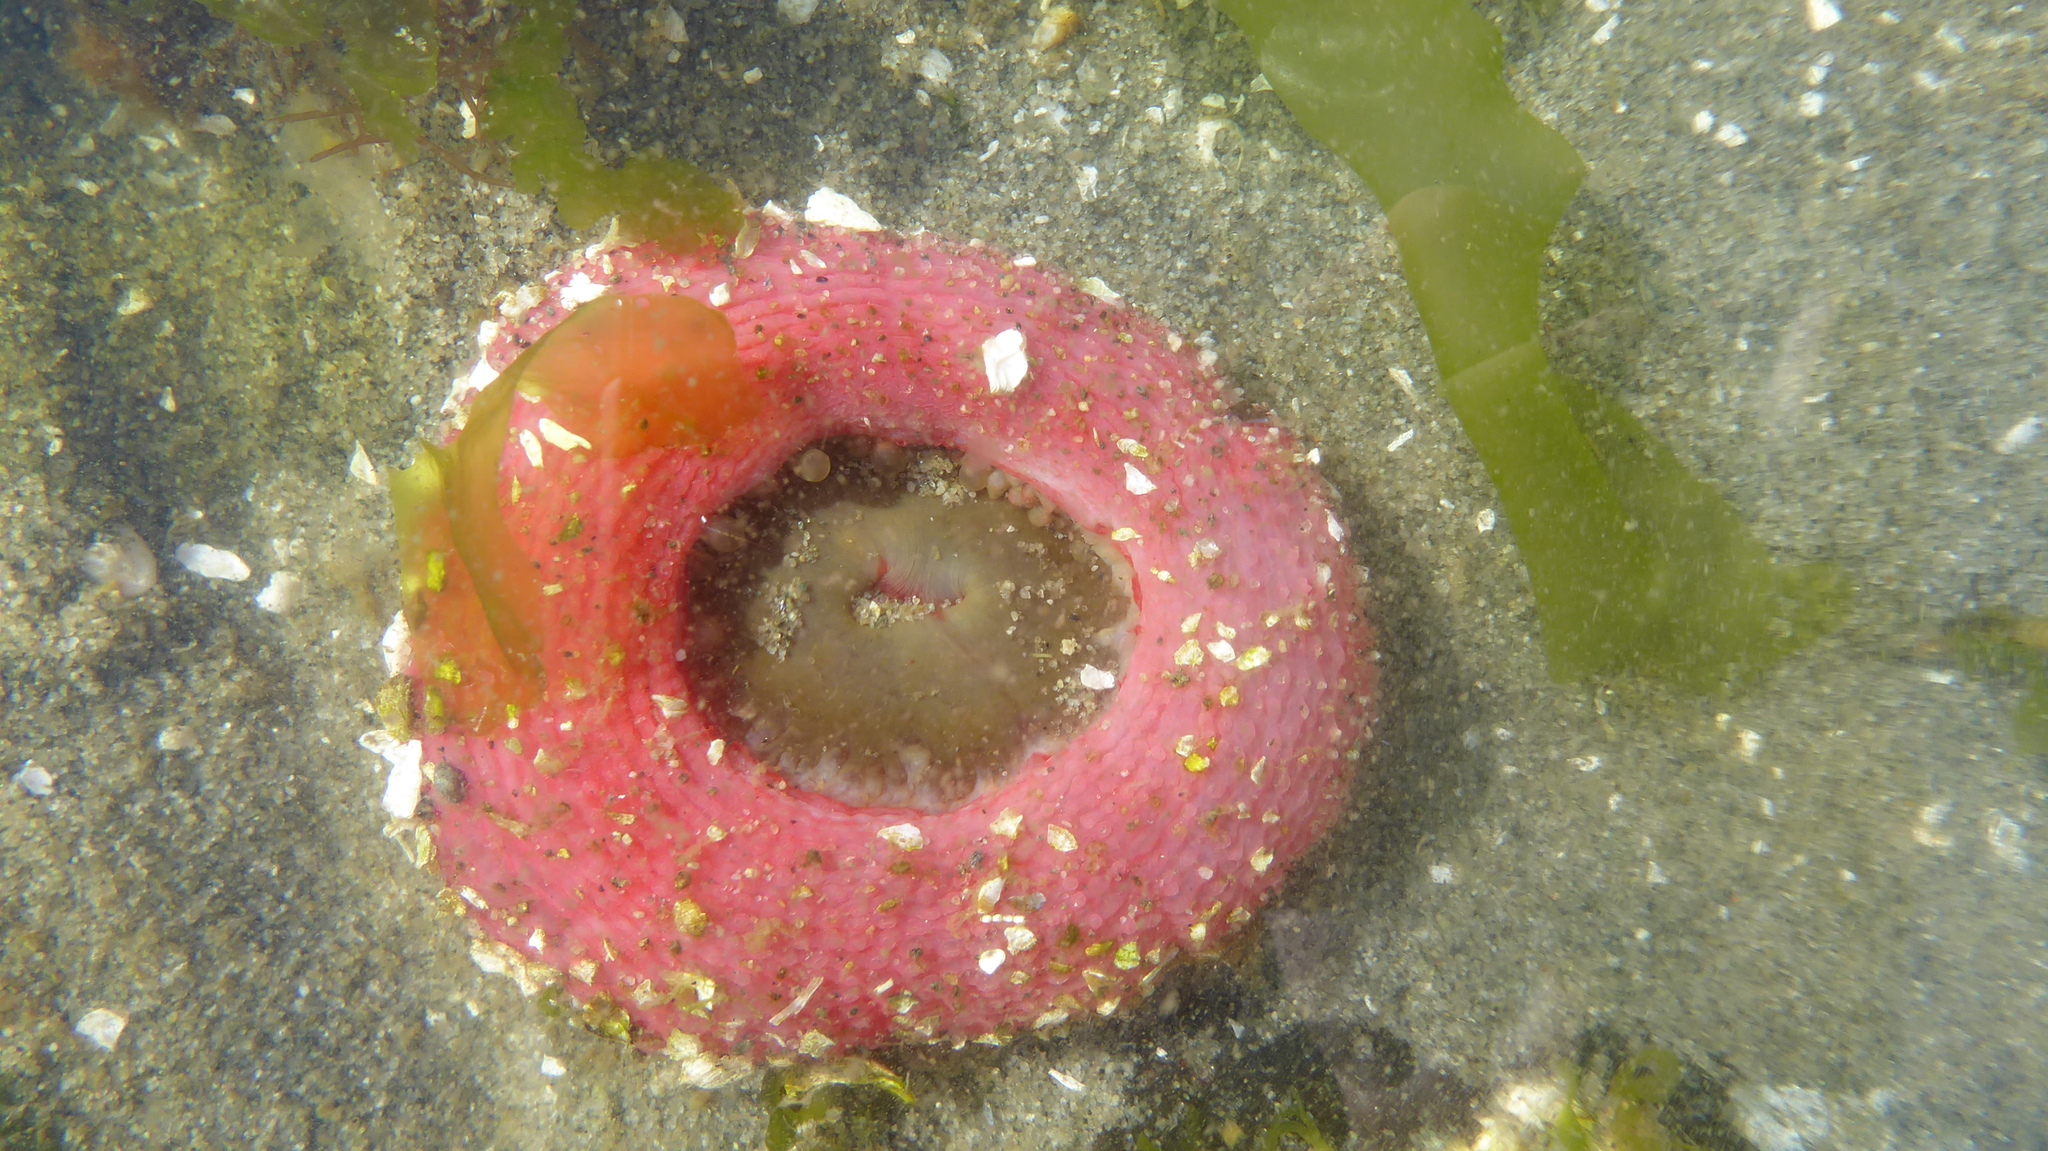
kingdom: Animalia
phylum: Cnidaria
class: Anthozoa
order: Actiniaria
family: Actiniidae
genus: Urticina
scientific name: Urticina clandestina
